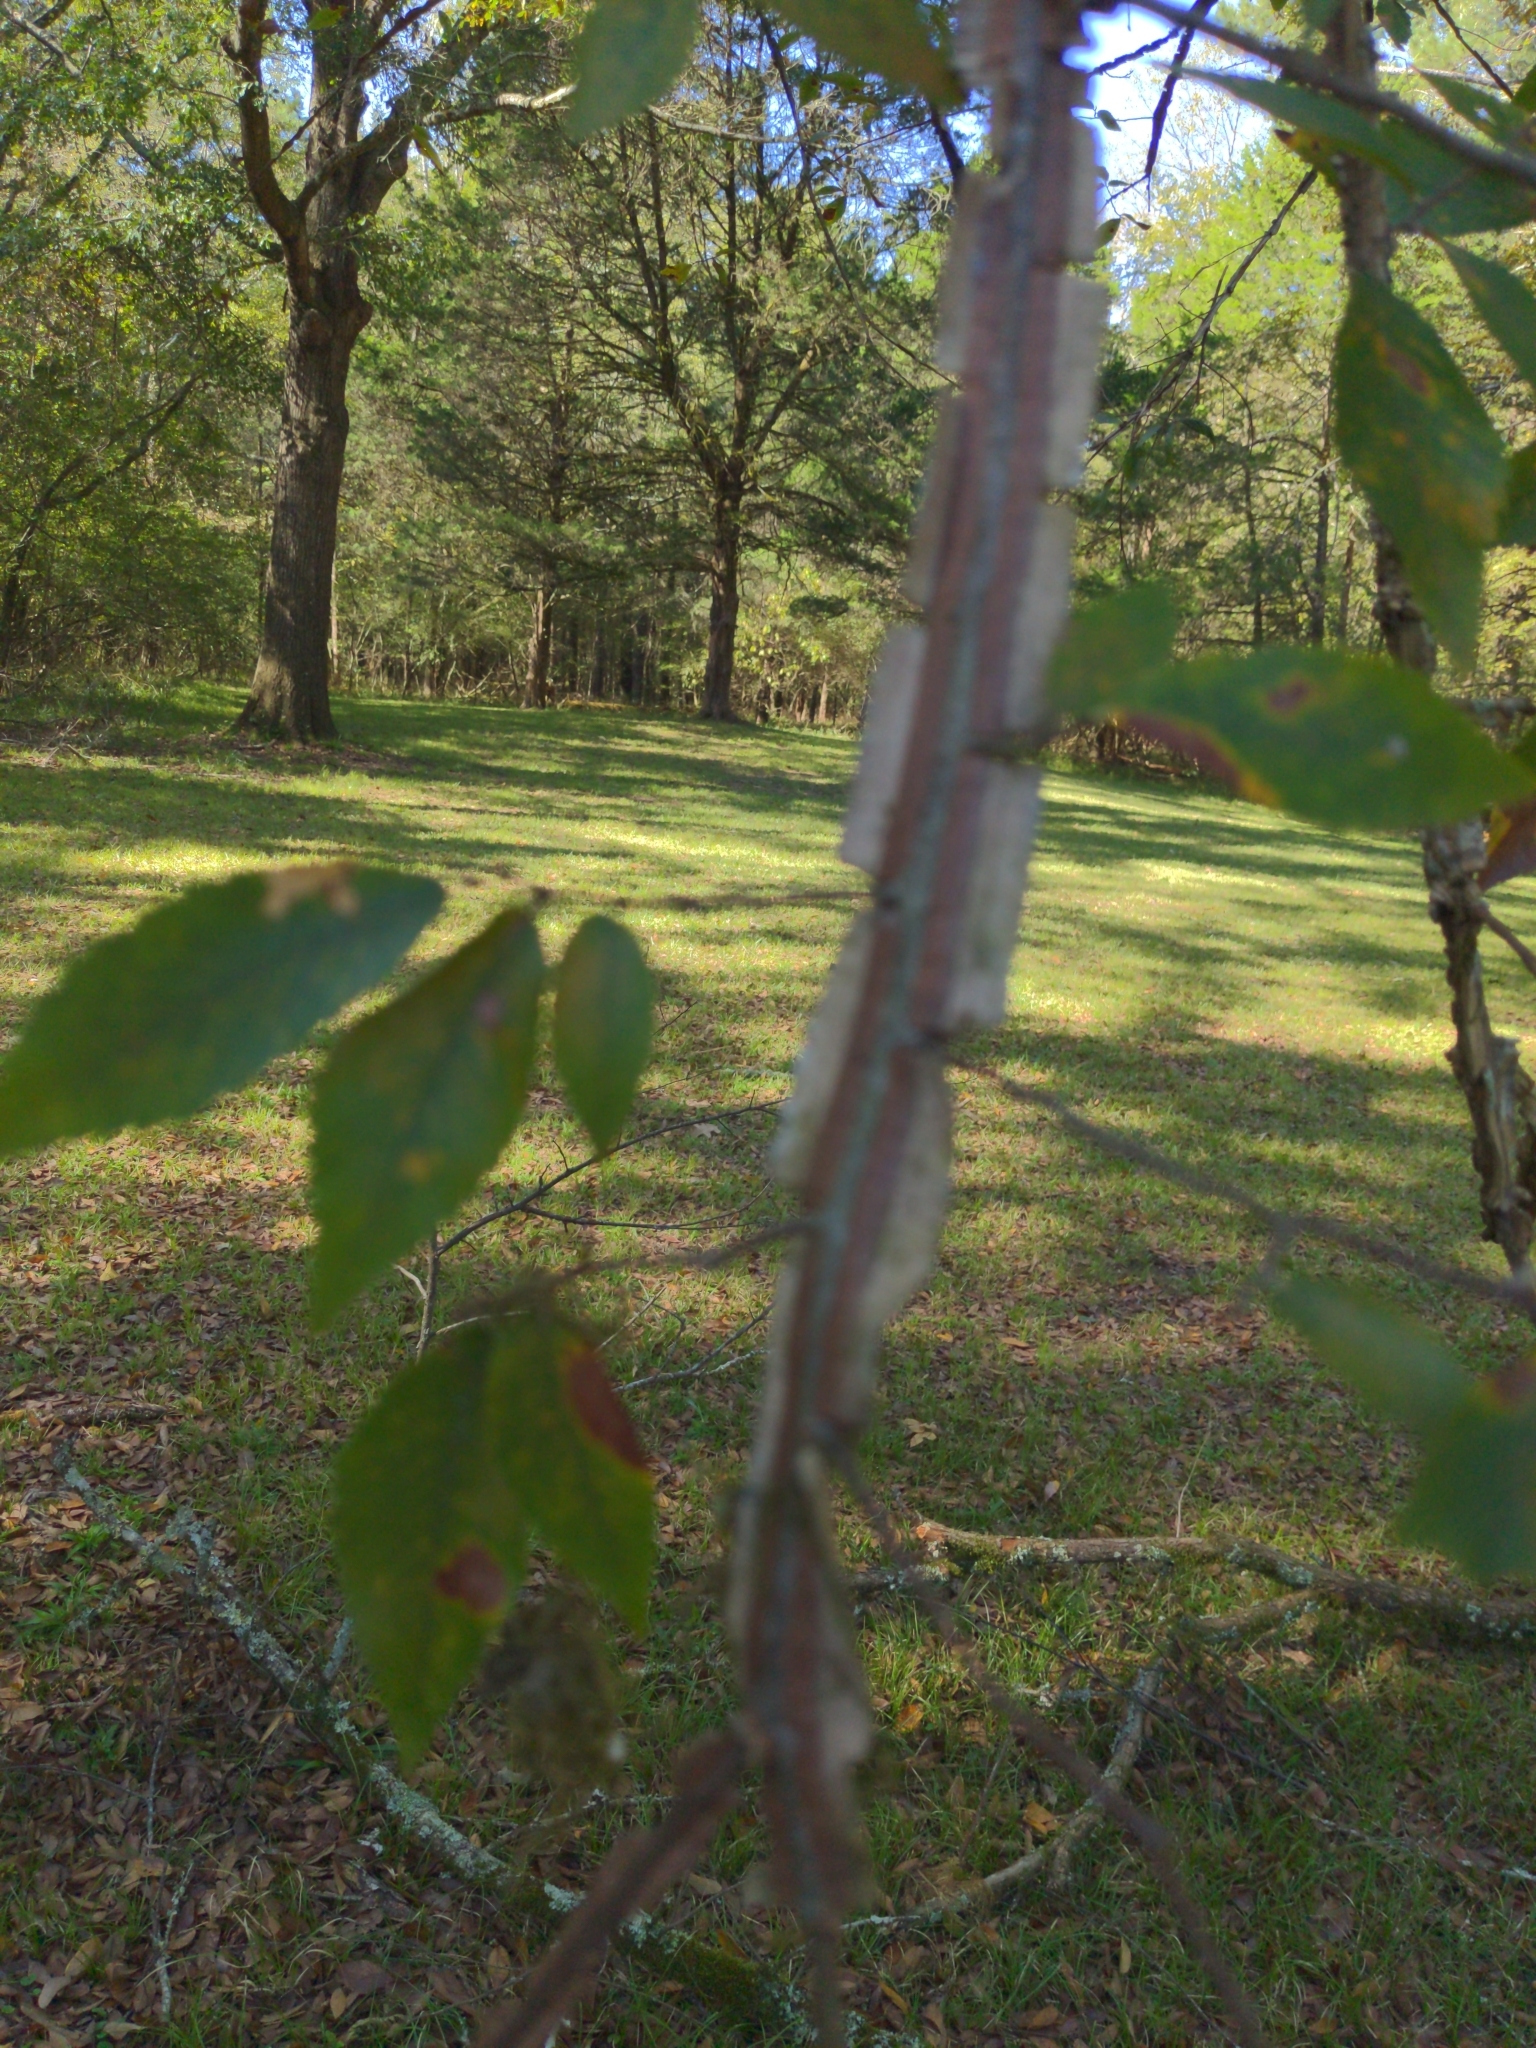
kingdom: Plantae
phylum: Tracheophyta
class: Magnoliopsida
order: Rosales
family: Ulmaceae
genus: Ulmus
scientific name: Ulmus alata
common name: Winged elm
